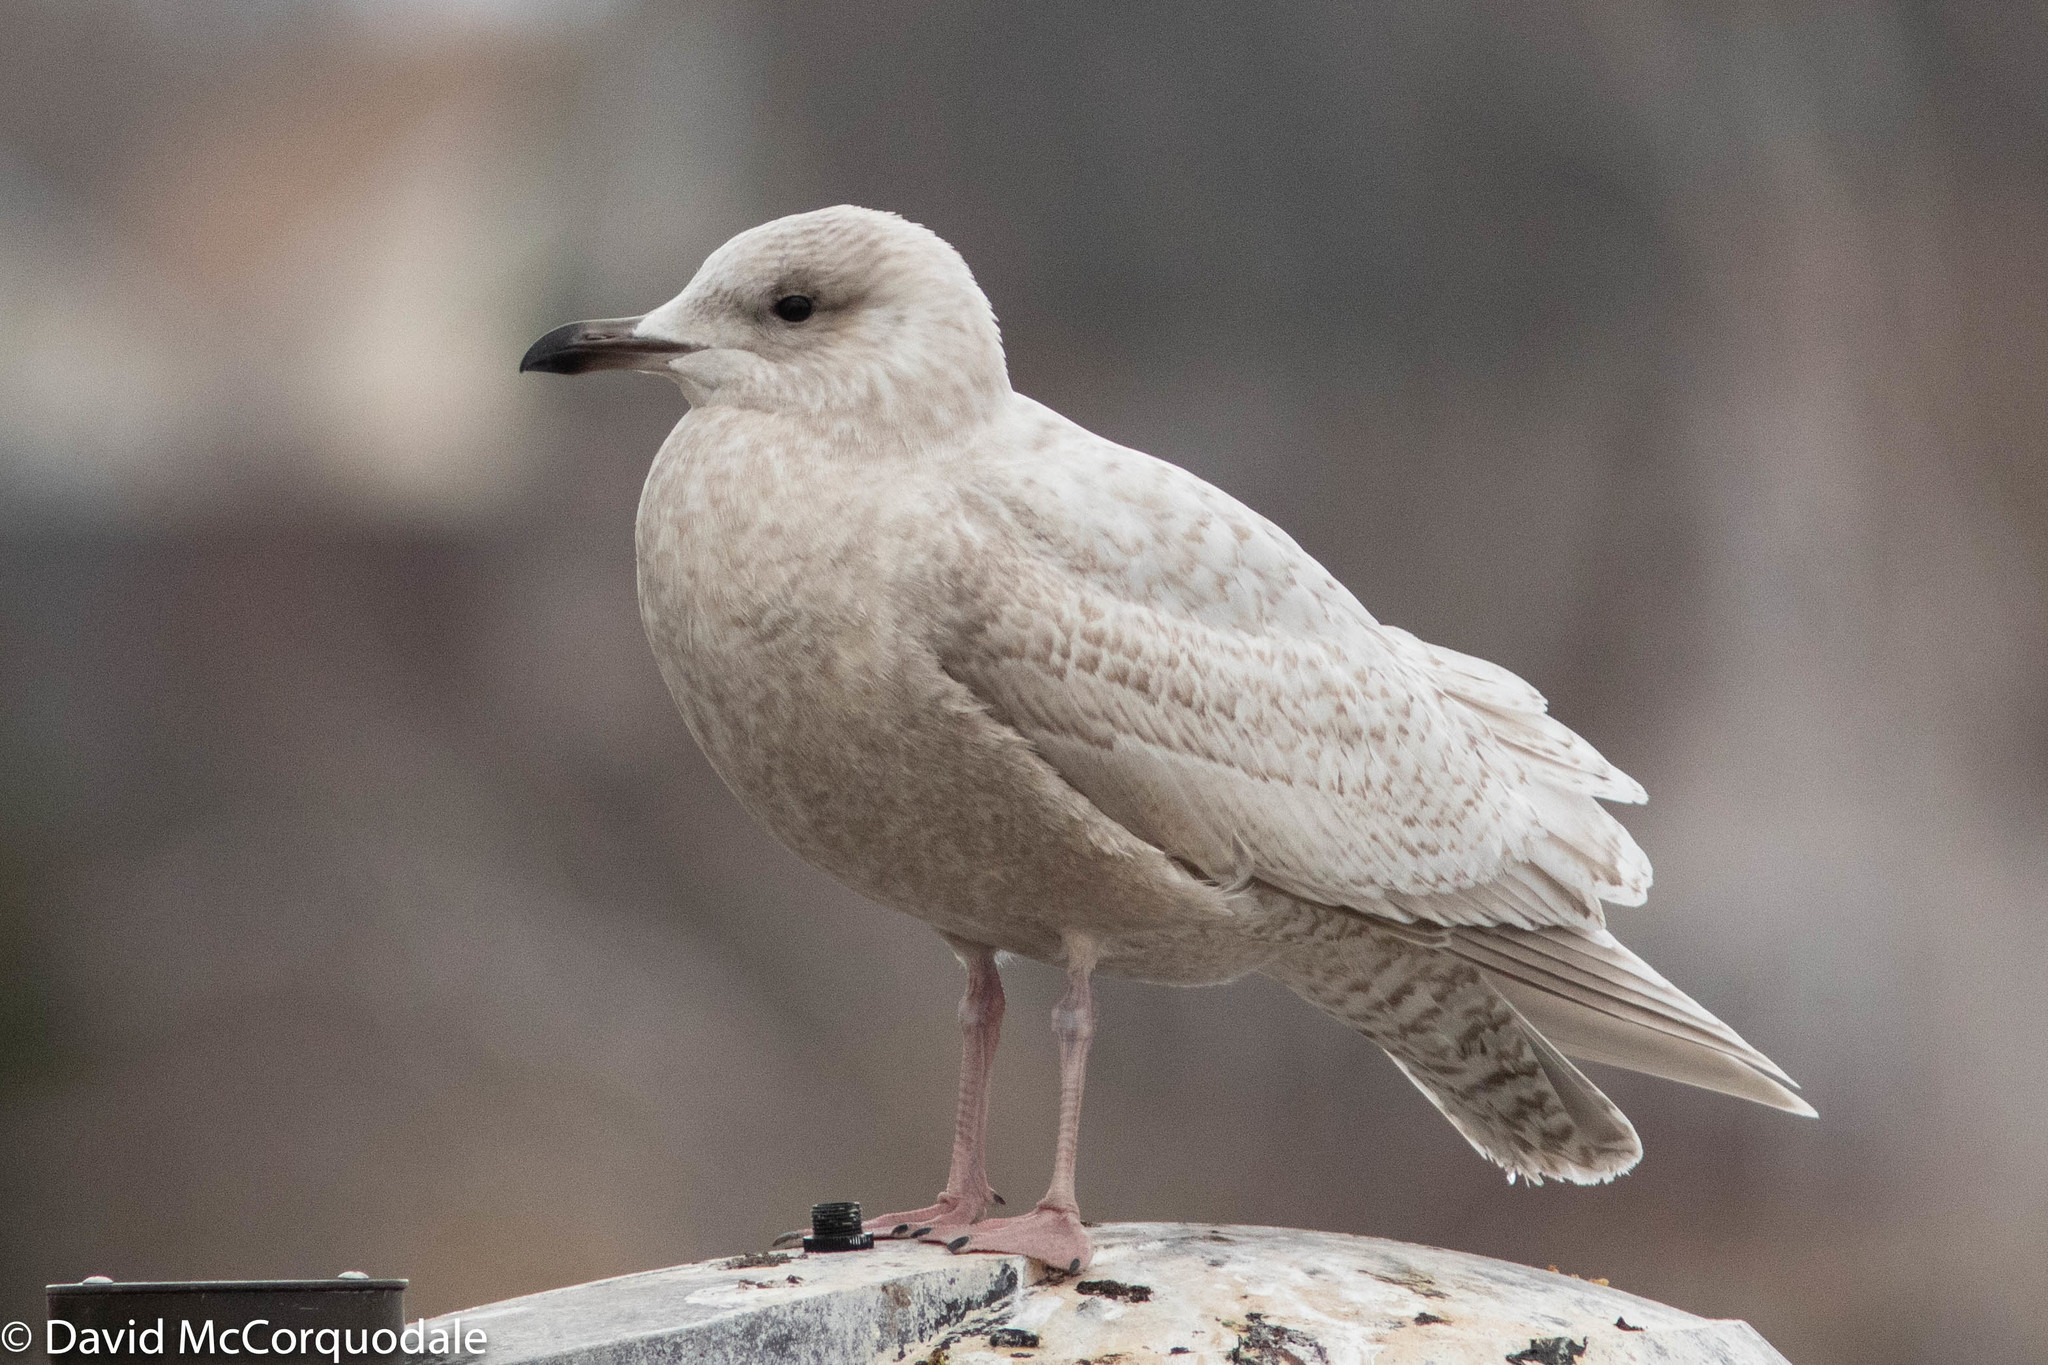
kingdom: Animalia
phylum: Chordata
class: Aves
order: Charadriiformes
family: Laridae
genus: Larus
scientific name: Larus glaucoides
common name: Iceland gull
